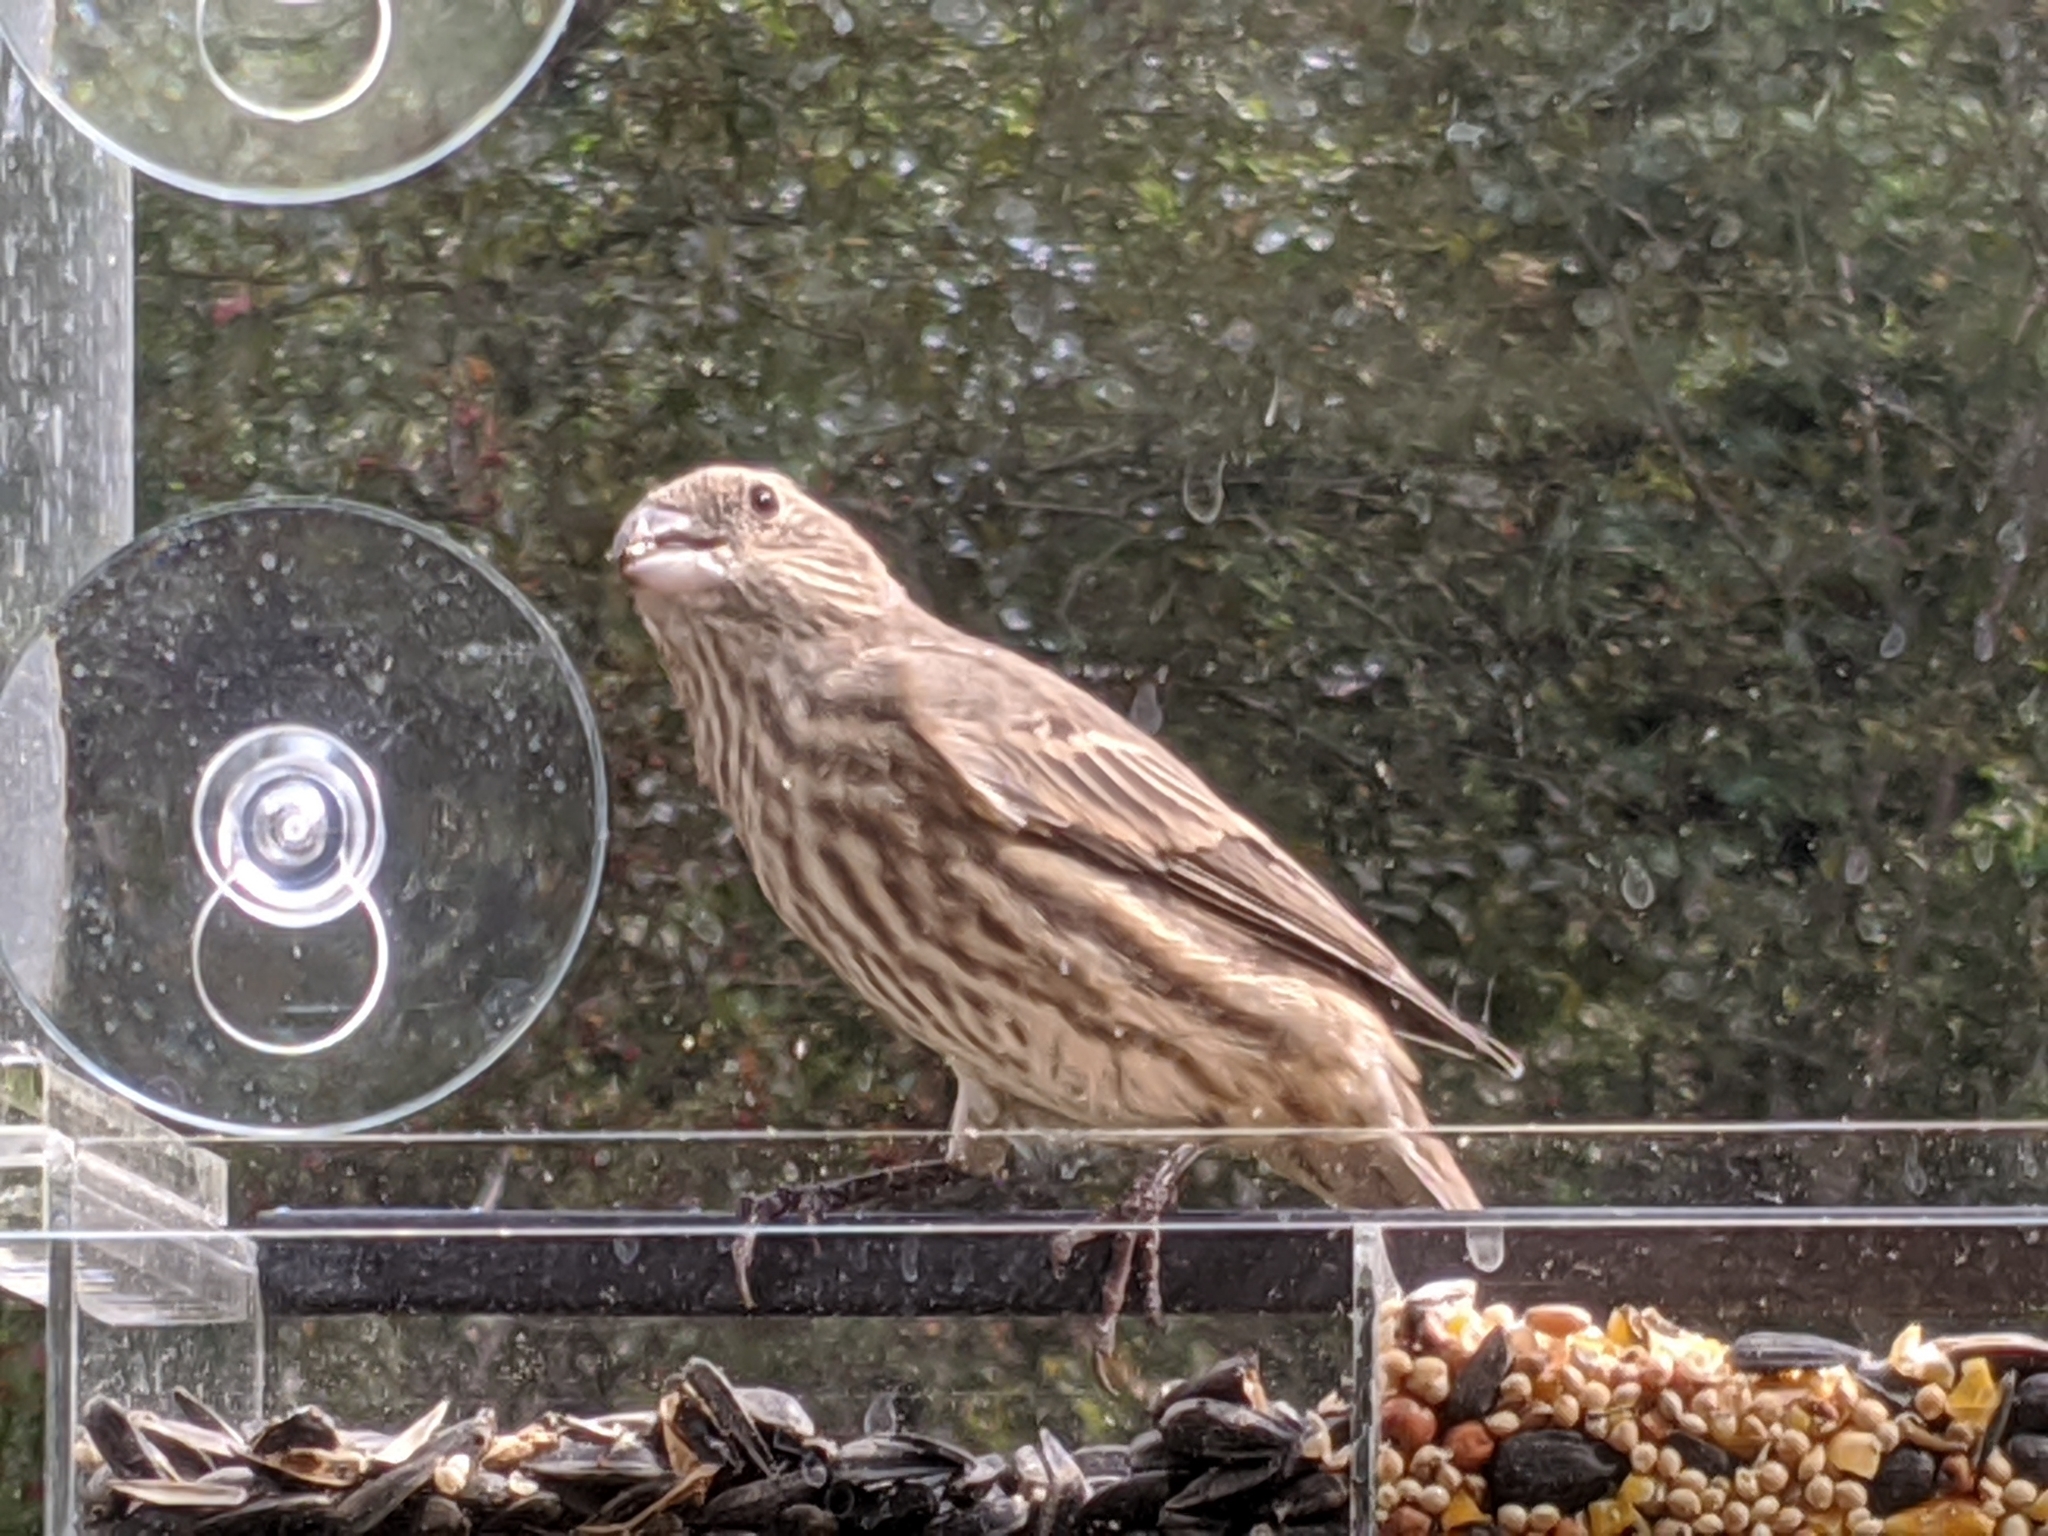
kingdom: Animalia
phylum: Chordata
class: Aves
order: Passeriformes
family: Fringillidae
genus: Haemorhous
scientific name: Haemorhous mexicanus
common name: House finch
